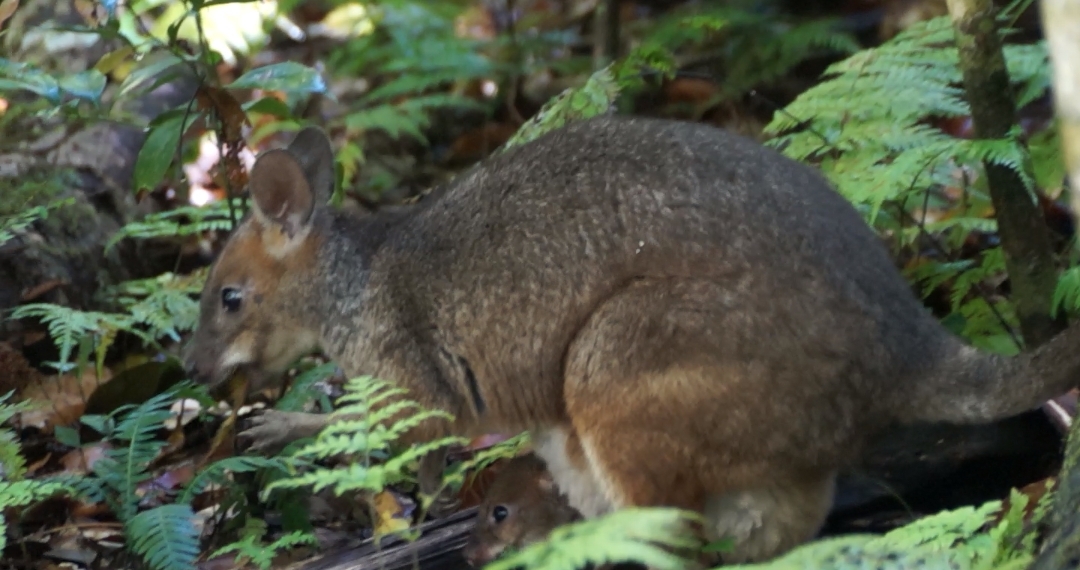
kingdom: Animalia
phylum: Chordata
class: Mammalia
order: Diprotodontia
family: Macropodidae
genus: Thylogale
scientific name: Thylogale stigmatica
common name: Red-legged pademelon
